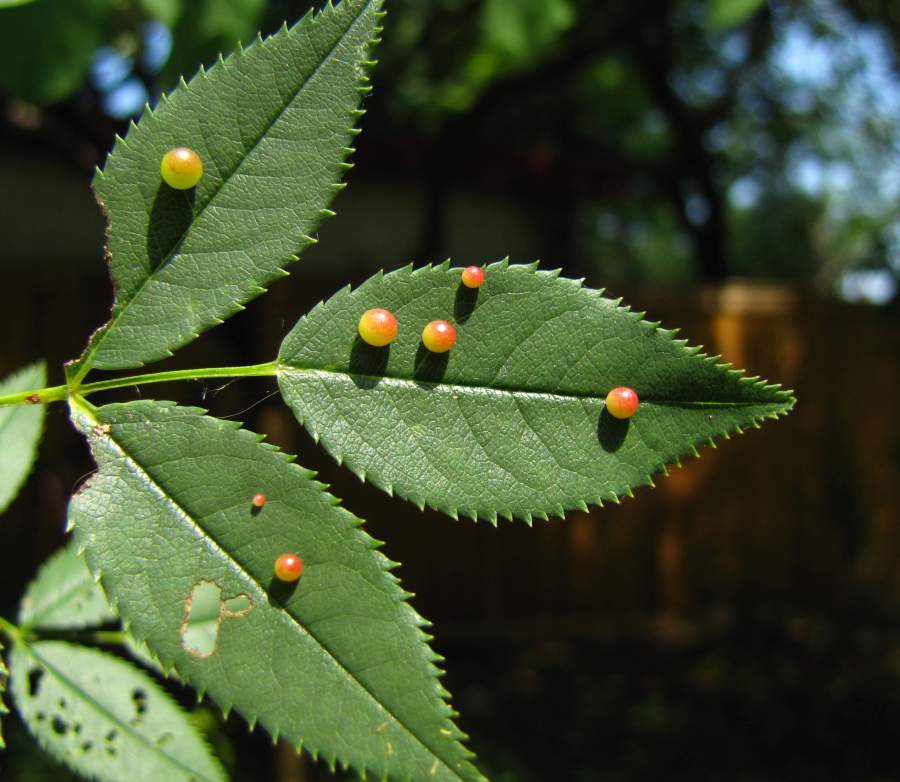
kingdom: Animalia
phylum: Arthropoda
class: Insecta
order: Hymenoptera
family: Cynipidae
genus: Diplolepis
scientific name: Diplolepis eglanteriae
